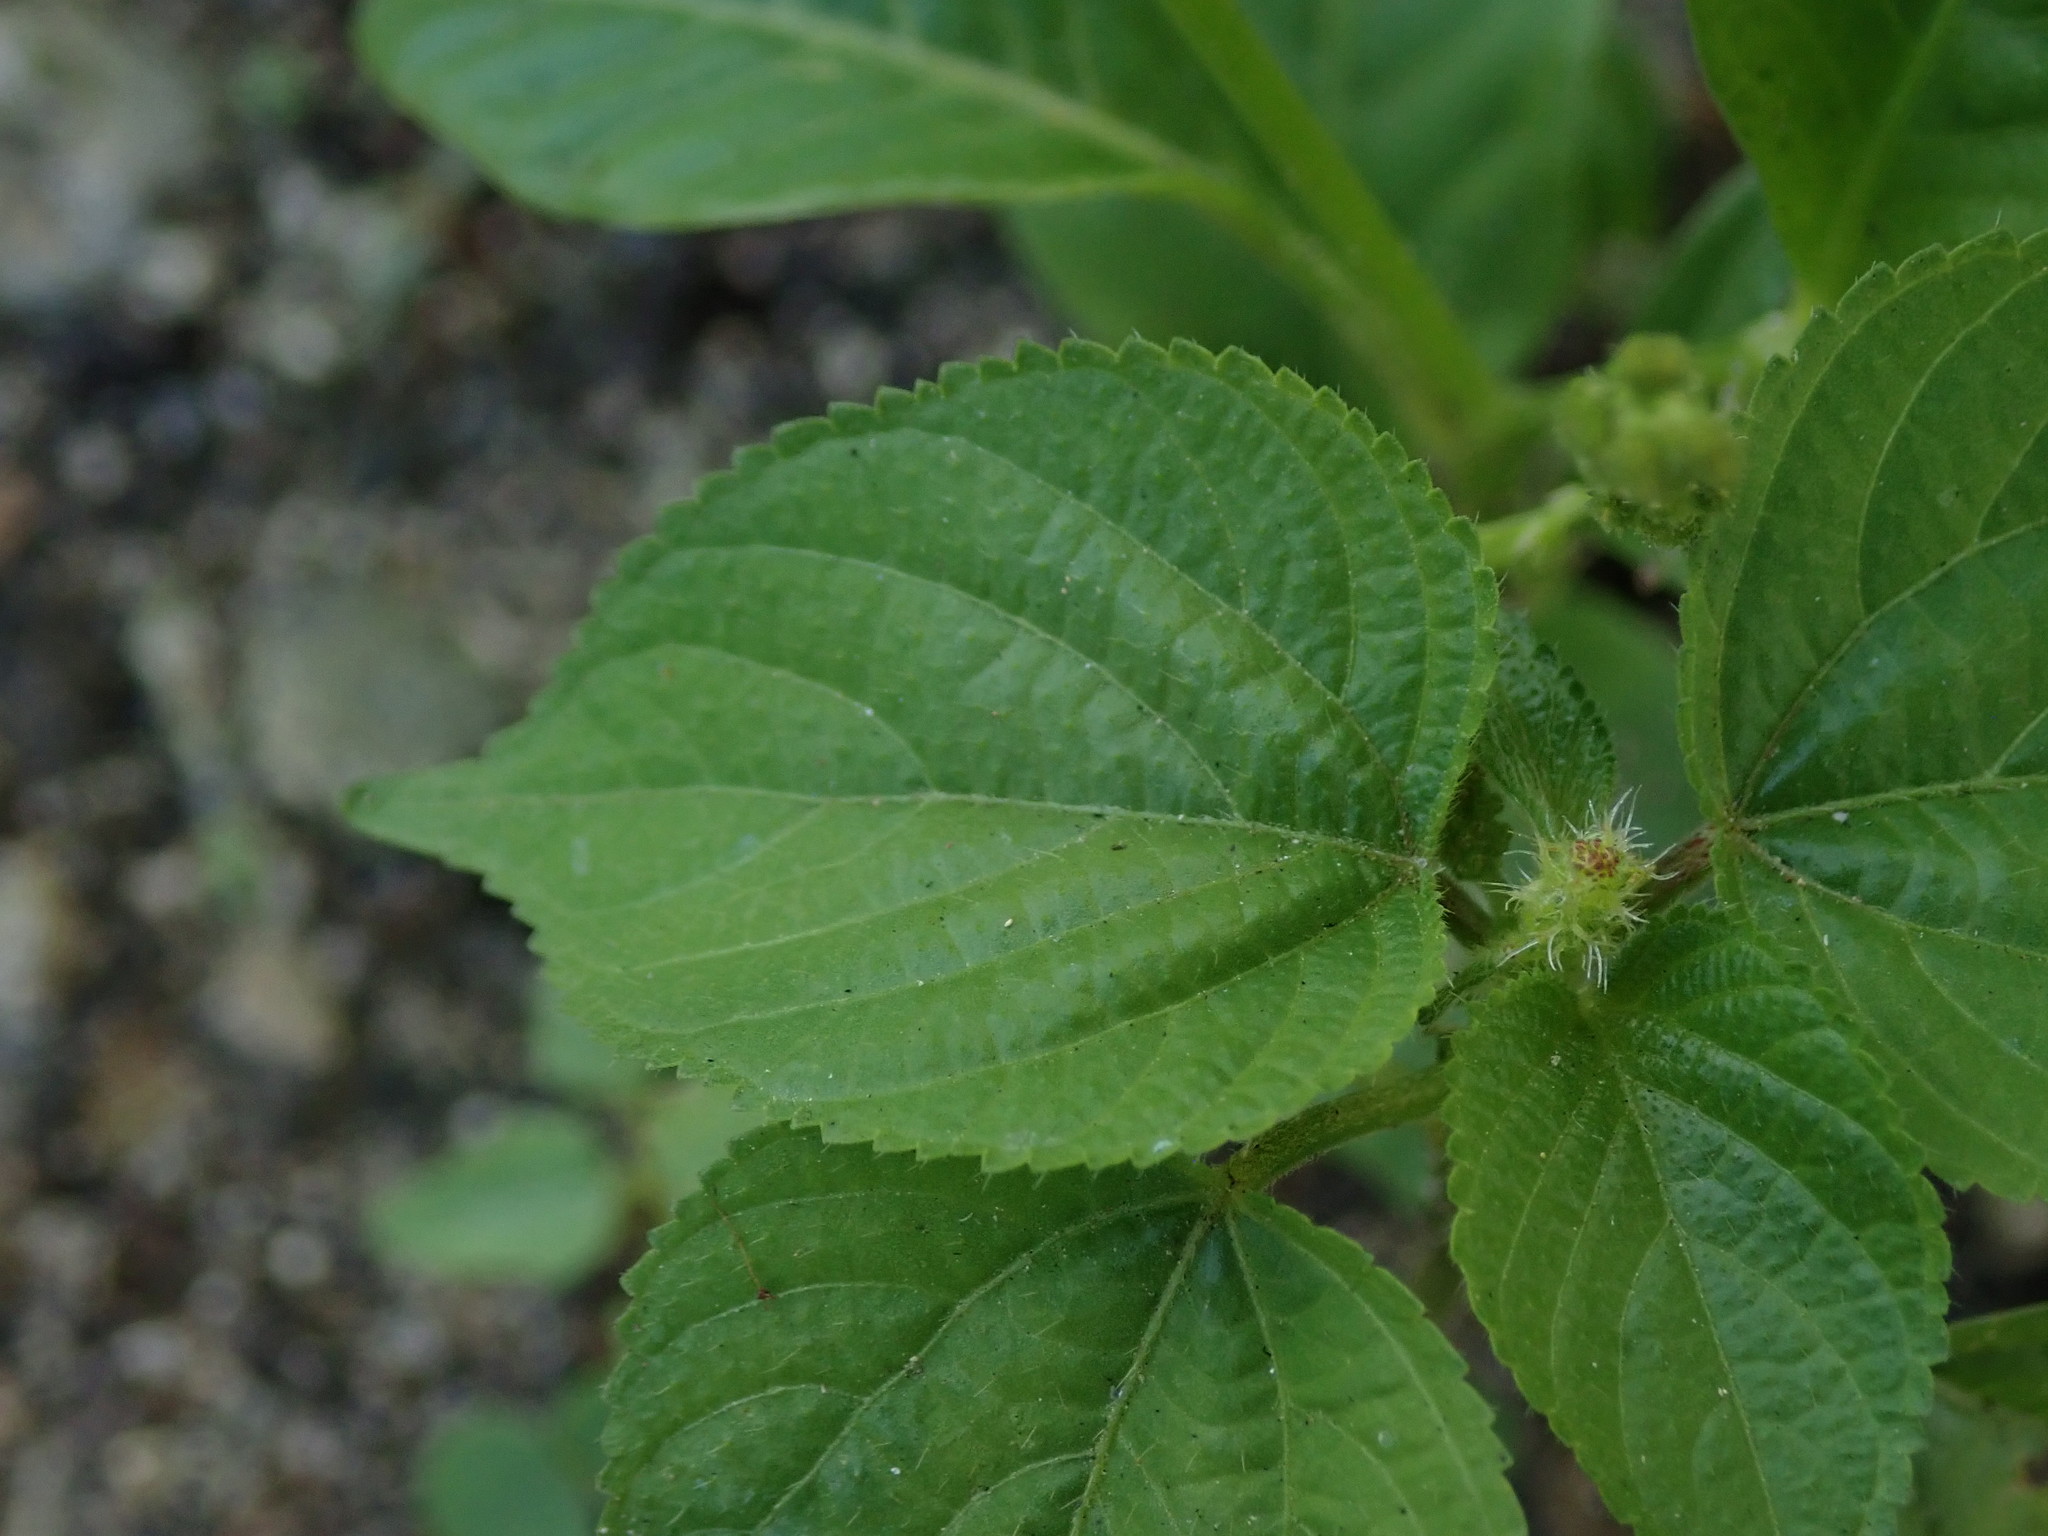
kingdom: Plantae
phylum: Tracheophyta
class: Magnoliopsida
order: Malpighiales
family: Euphorbiaceae
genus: Acalypha
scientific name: Acalypha ostryifolia
